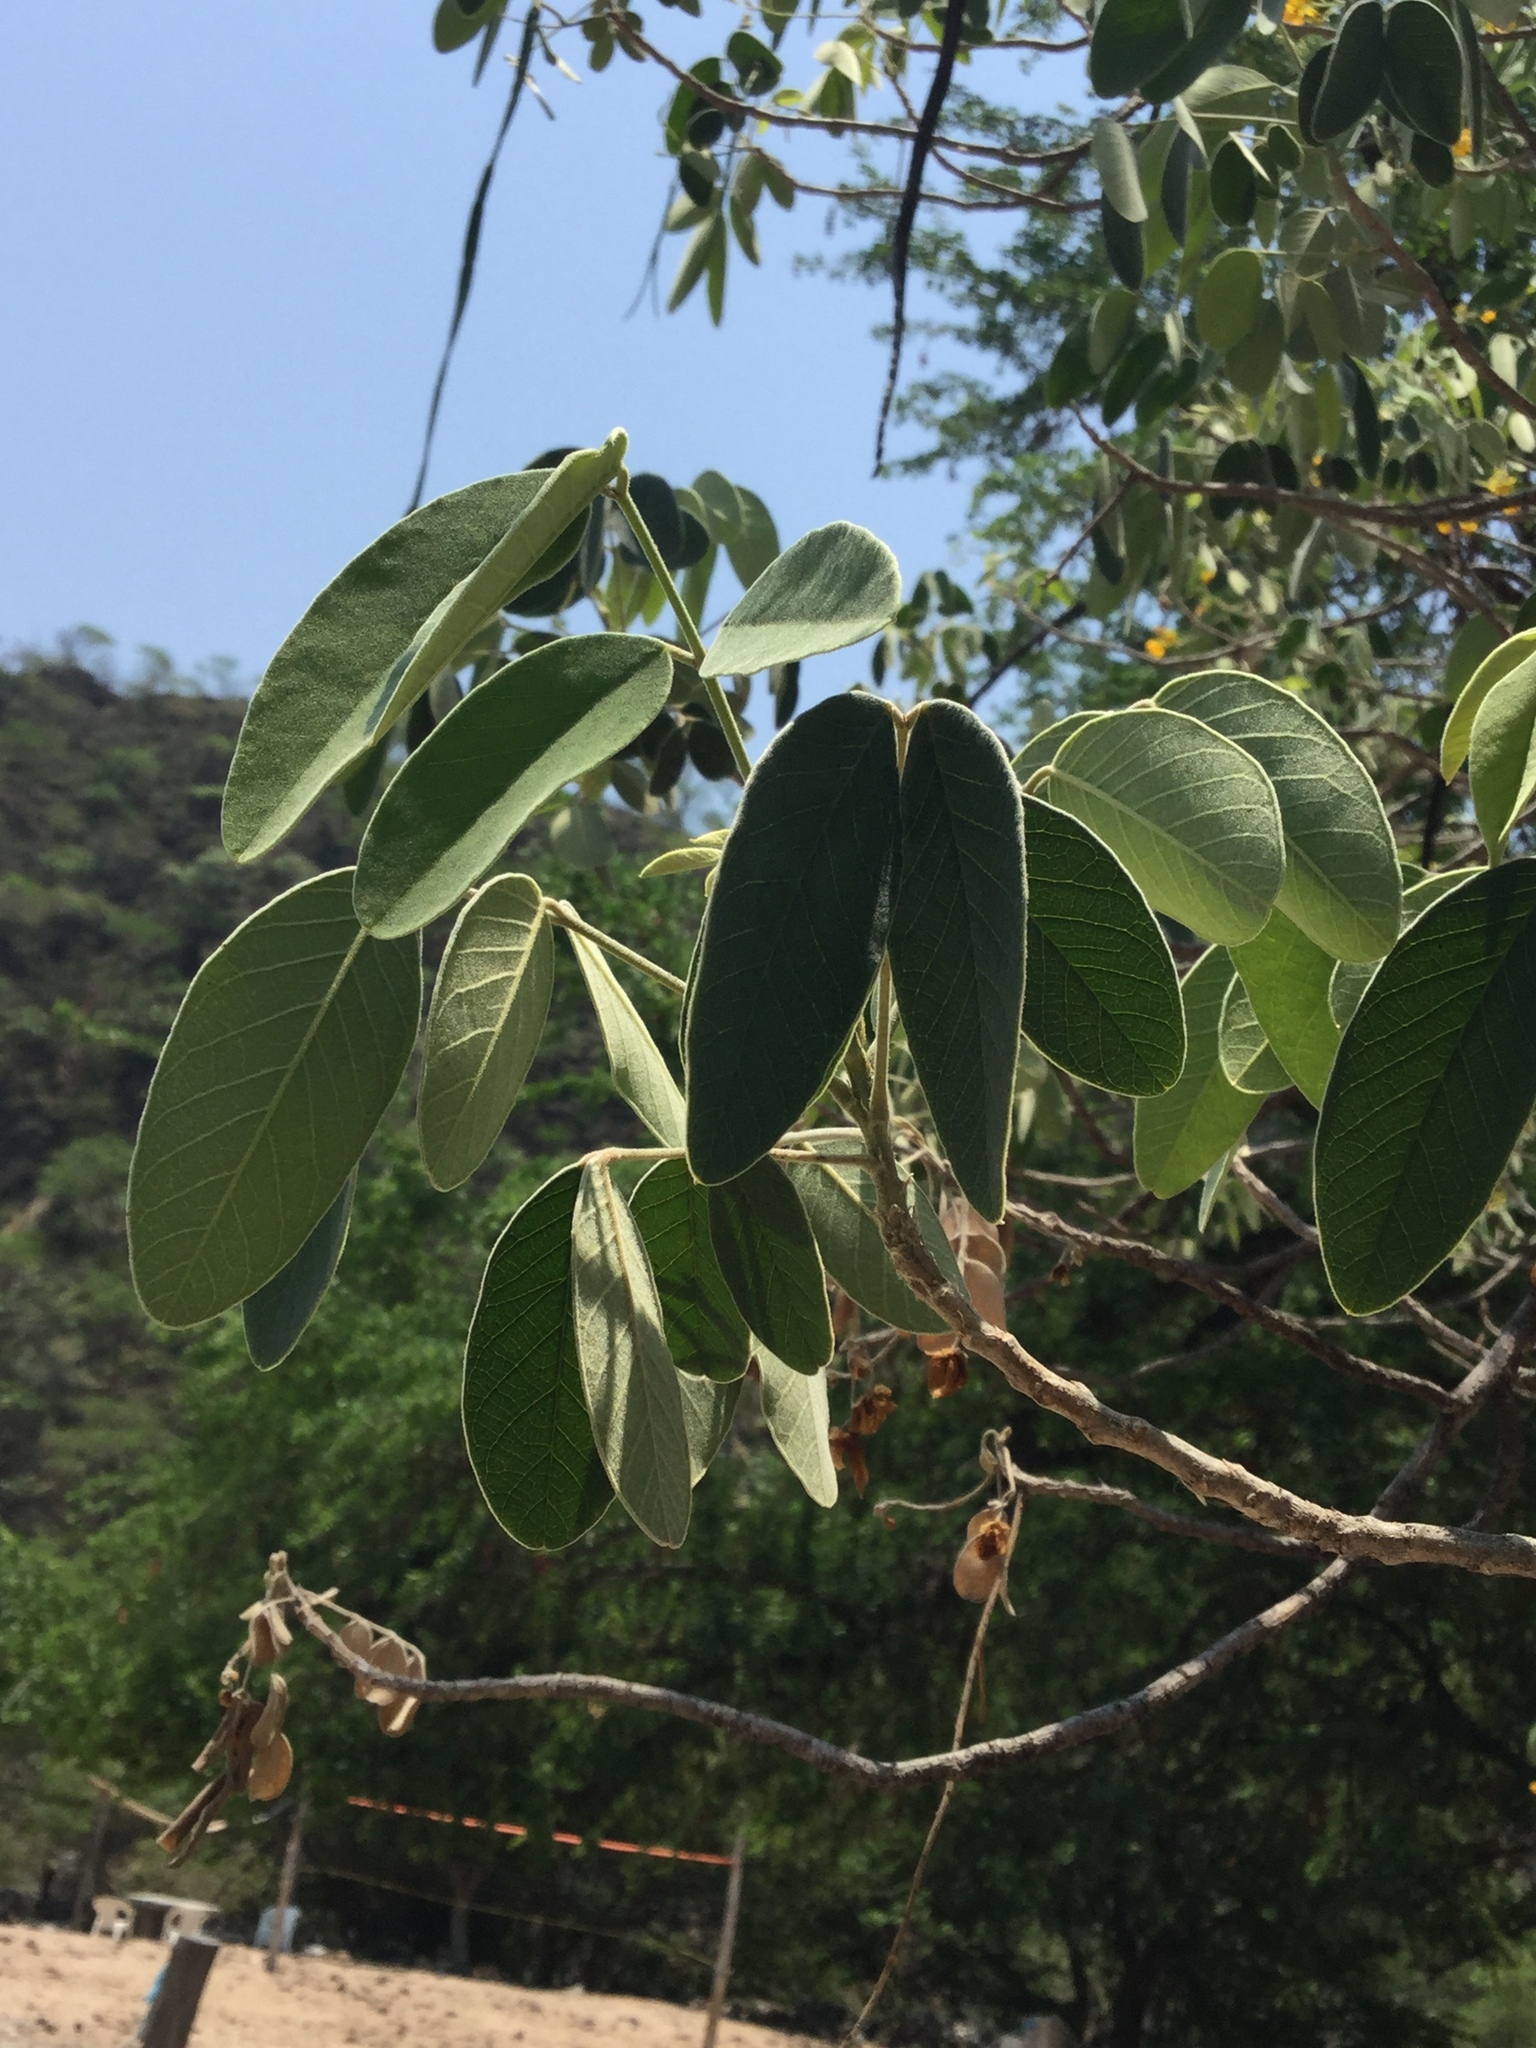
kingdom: Plantae
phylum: Tracheophyta
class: Magnoliopsida
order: Fabales
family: Fabaceae
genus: Senna
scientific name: Senna atomaria
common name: Flor de san jose
